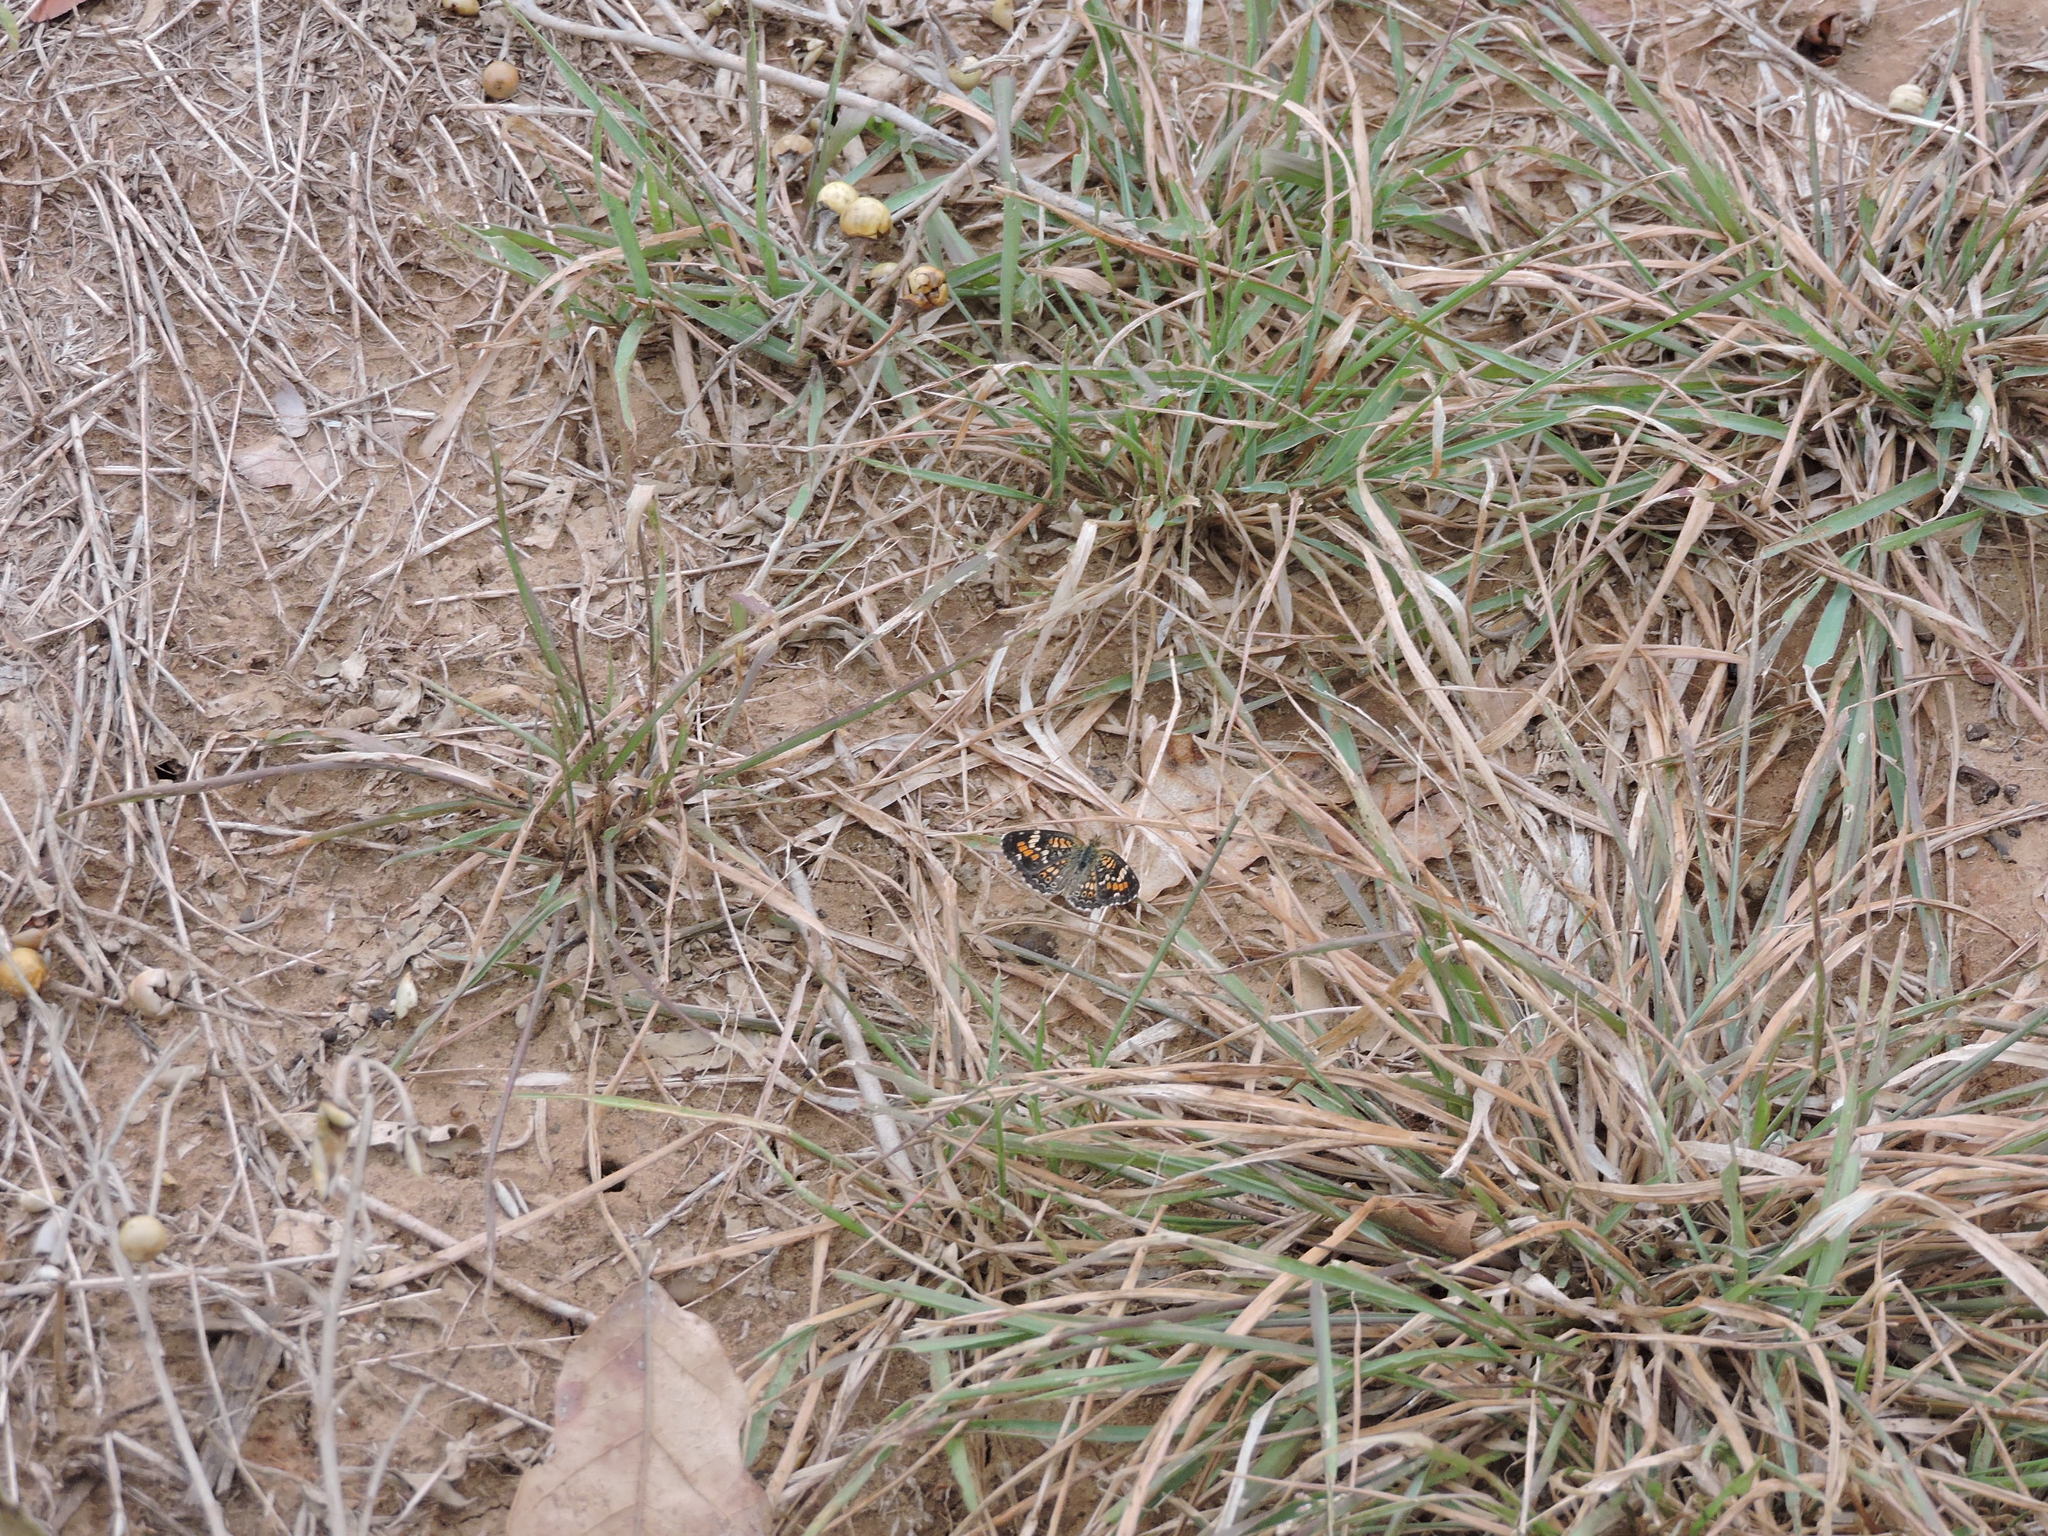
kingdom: Animalia
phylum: Arthropoda
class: Insecta
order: Lepidoptera
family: Nymphalidae
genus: Phyciodes
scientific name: Phyciodes phaon
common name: Phaon crescent
